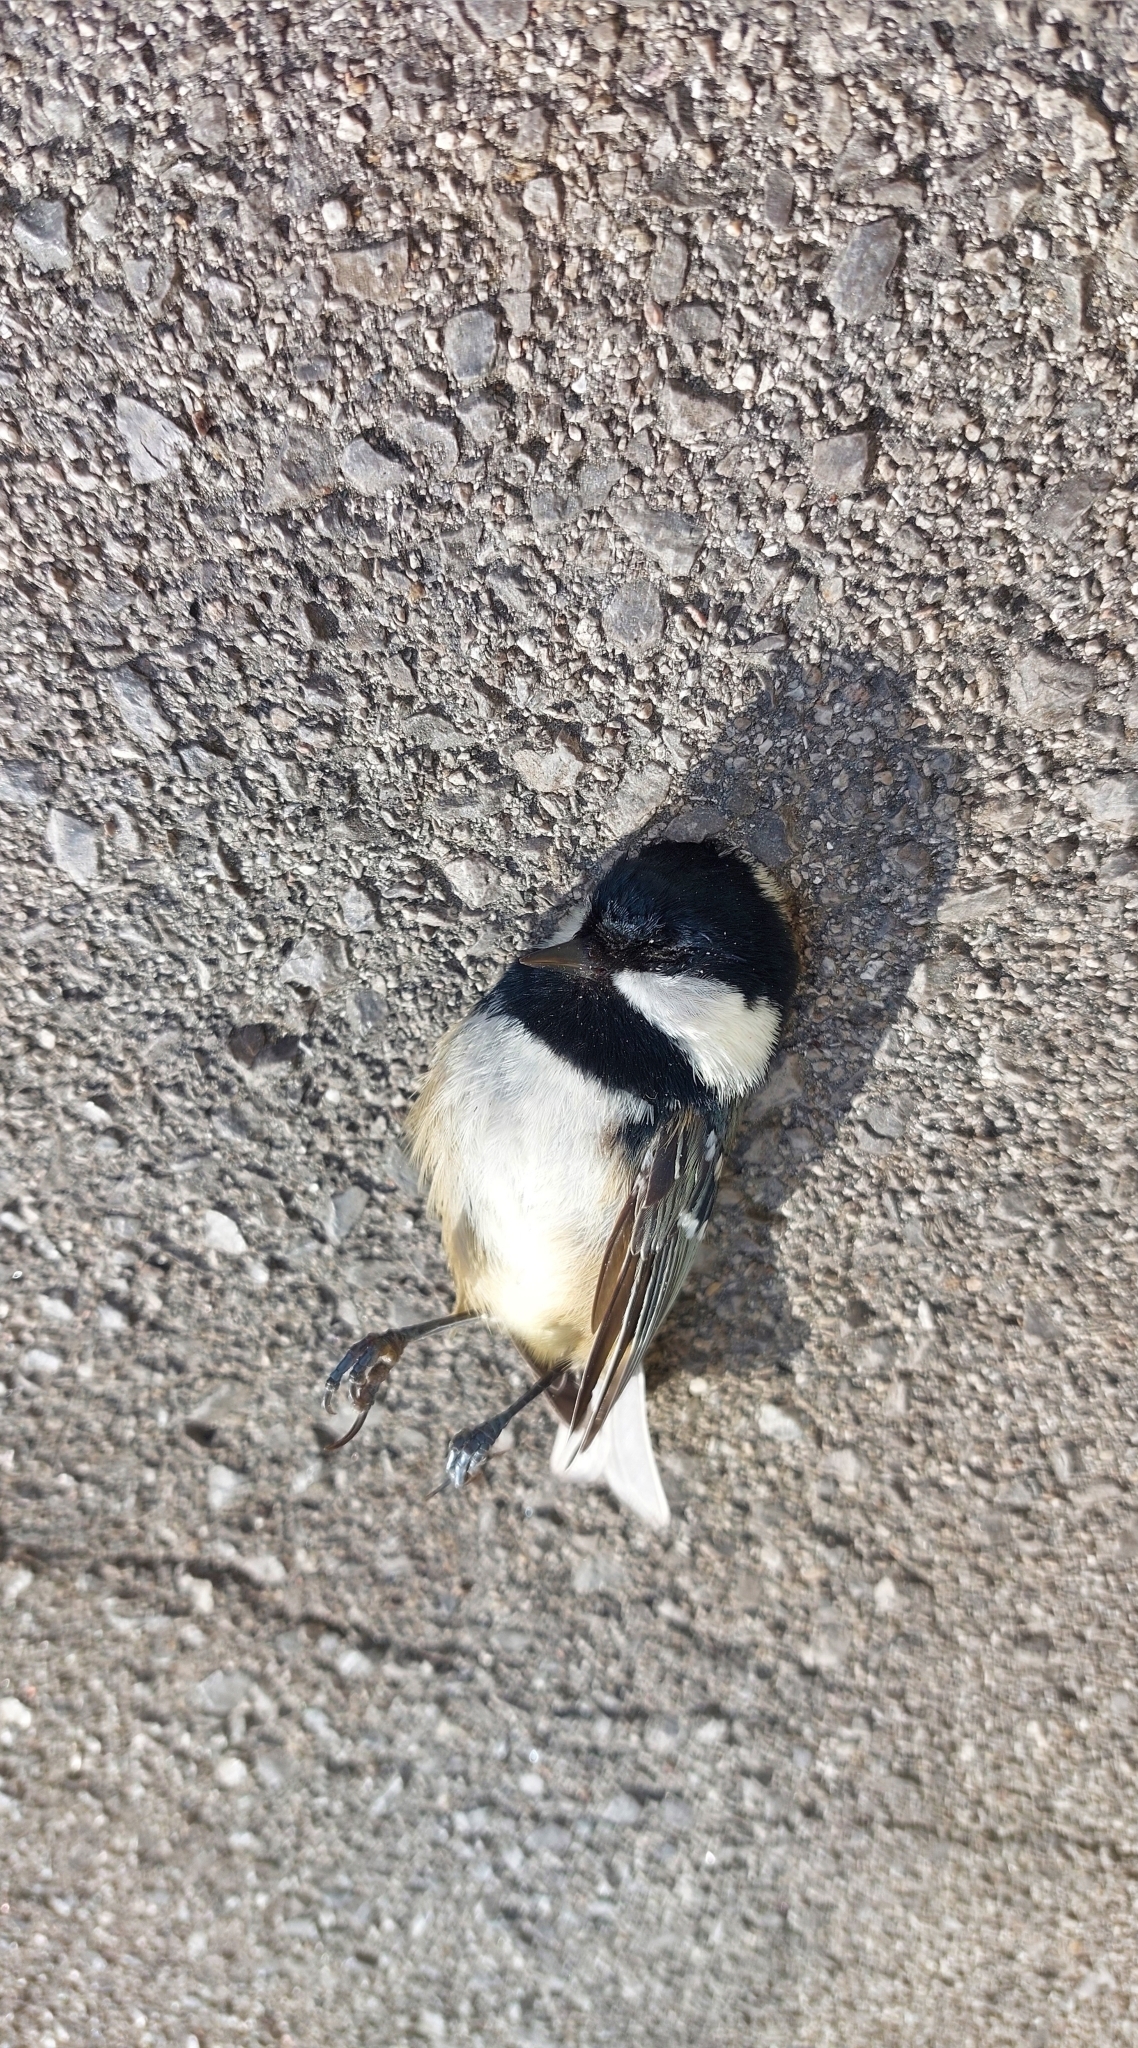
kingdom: Animalia
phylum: Chordata
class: Aves
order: Passeriformes
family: Paridae
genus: Periparus
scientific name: Periparus ater
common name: Coal tit
